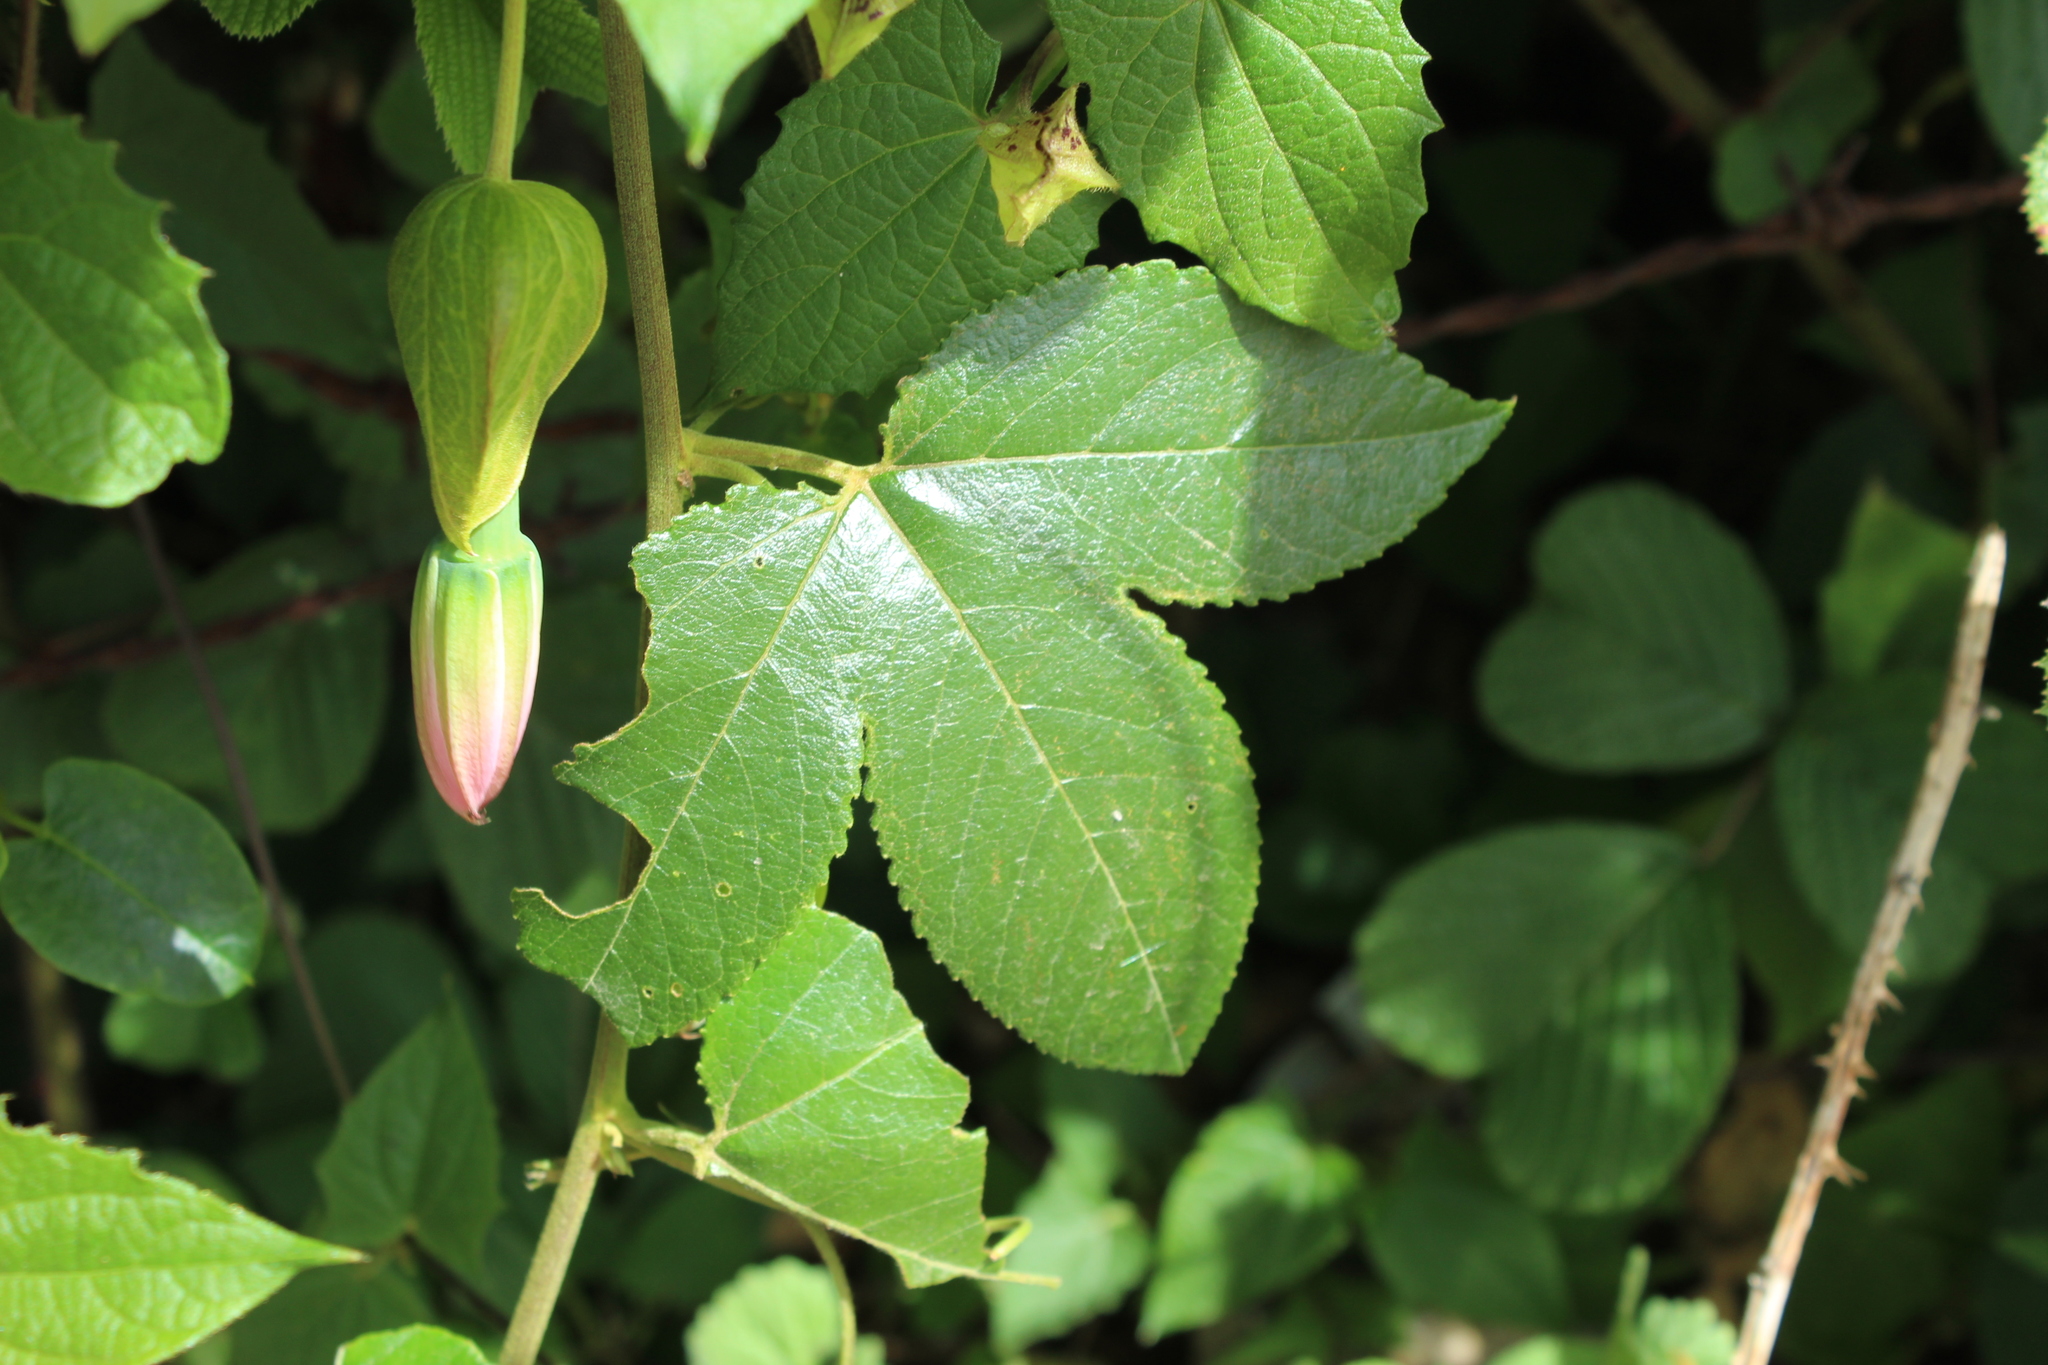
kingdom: Plantae
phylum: Tracheophyta
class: Magnoliopsida
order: Malpighiales
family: Passifloraceae
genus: Passiflora
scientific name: Passiflora tarminiana
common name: Banana poka
